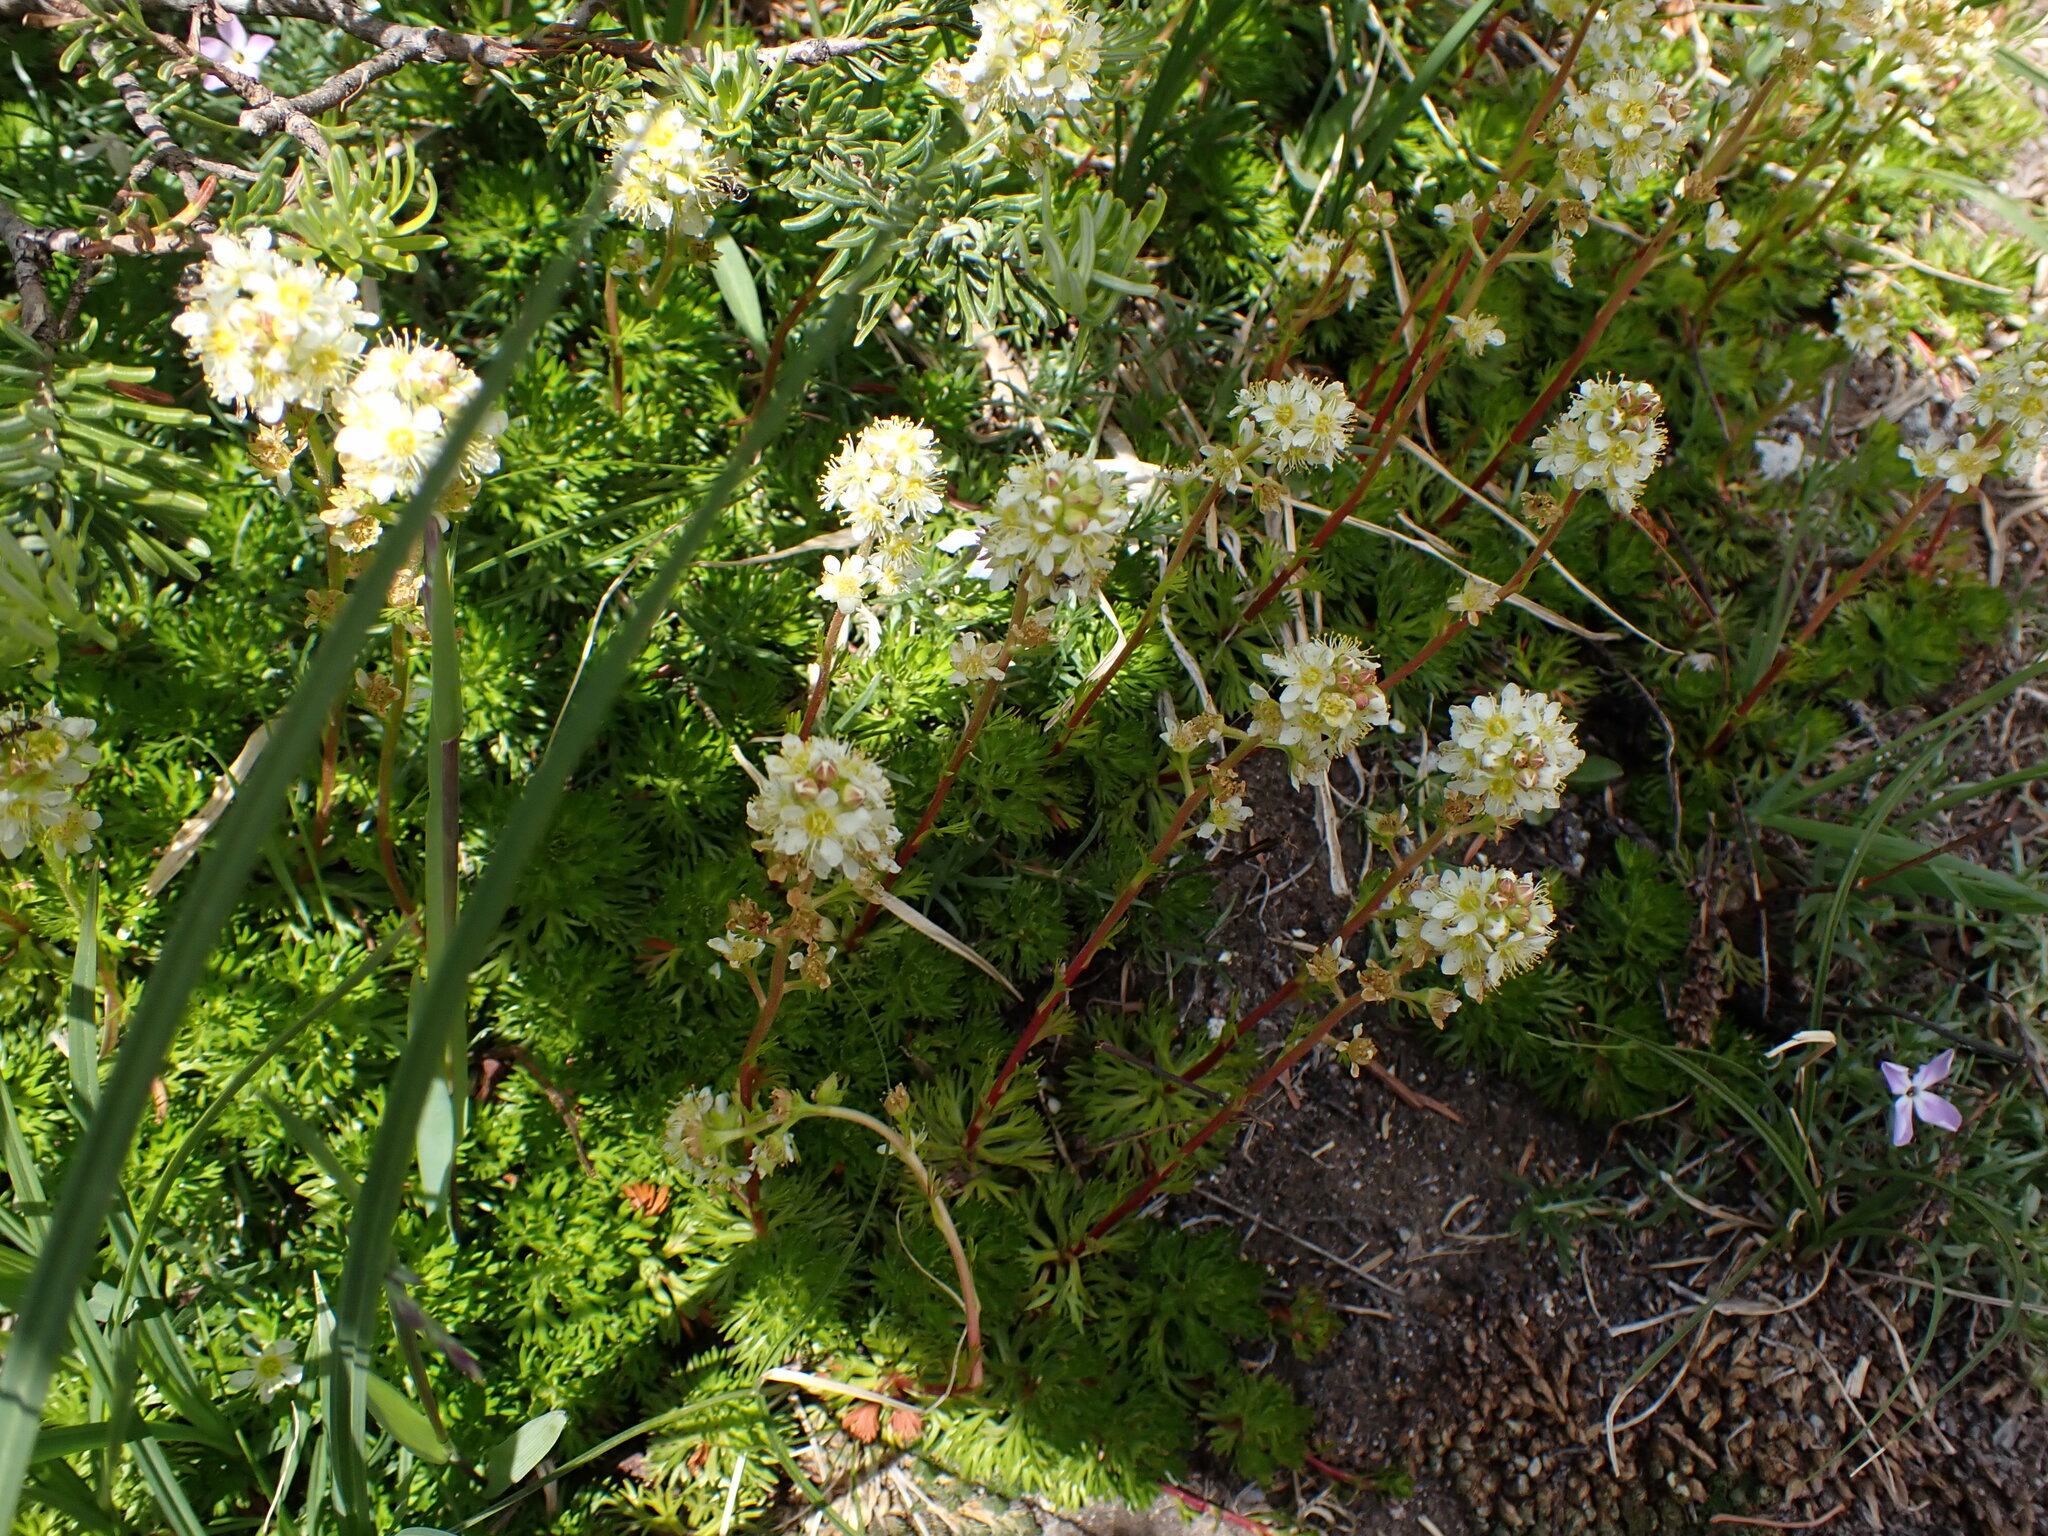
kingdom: Plantae
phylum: Tracheophyta
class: Magnoliopsida
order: Rosales
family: Rosaceae
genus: Luetkea
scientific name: Luetkea pectinata
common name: Partridgefoot
